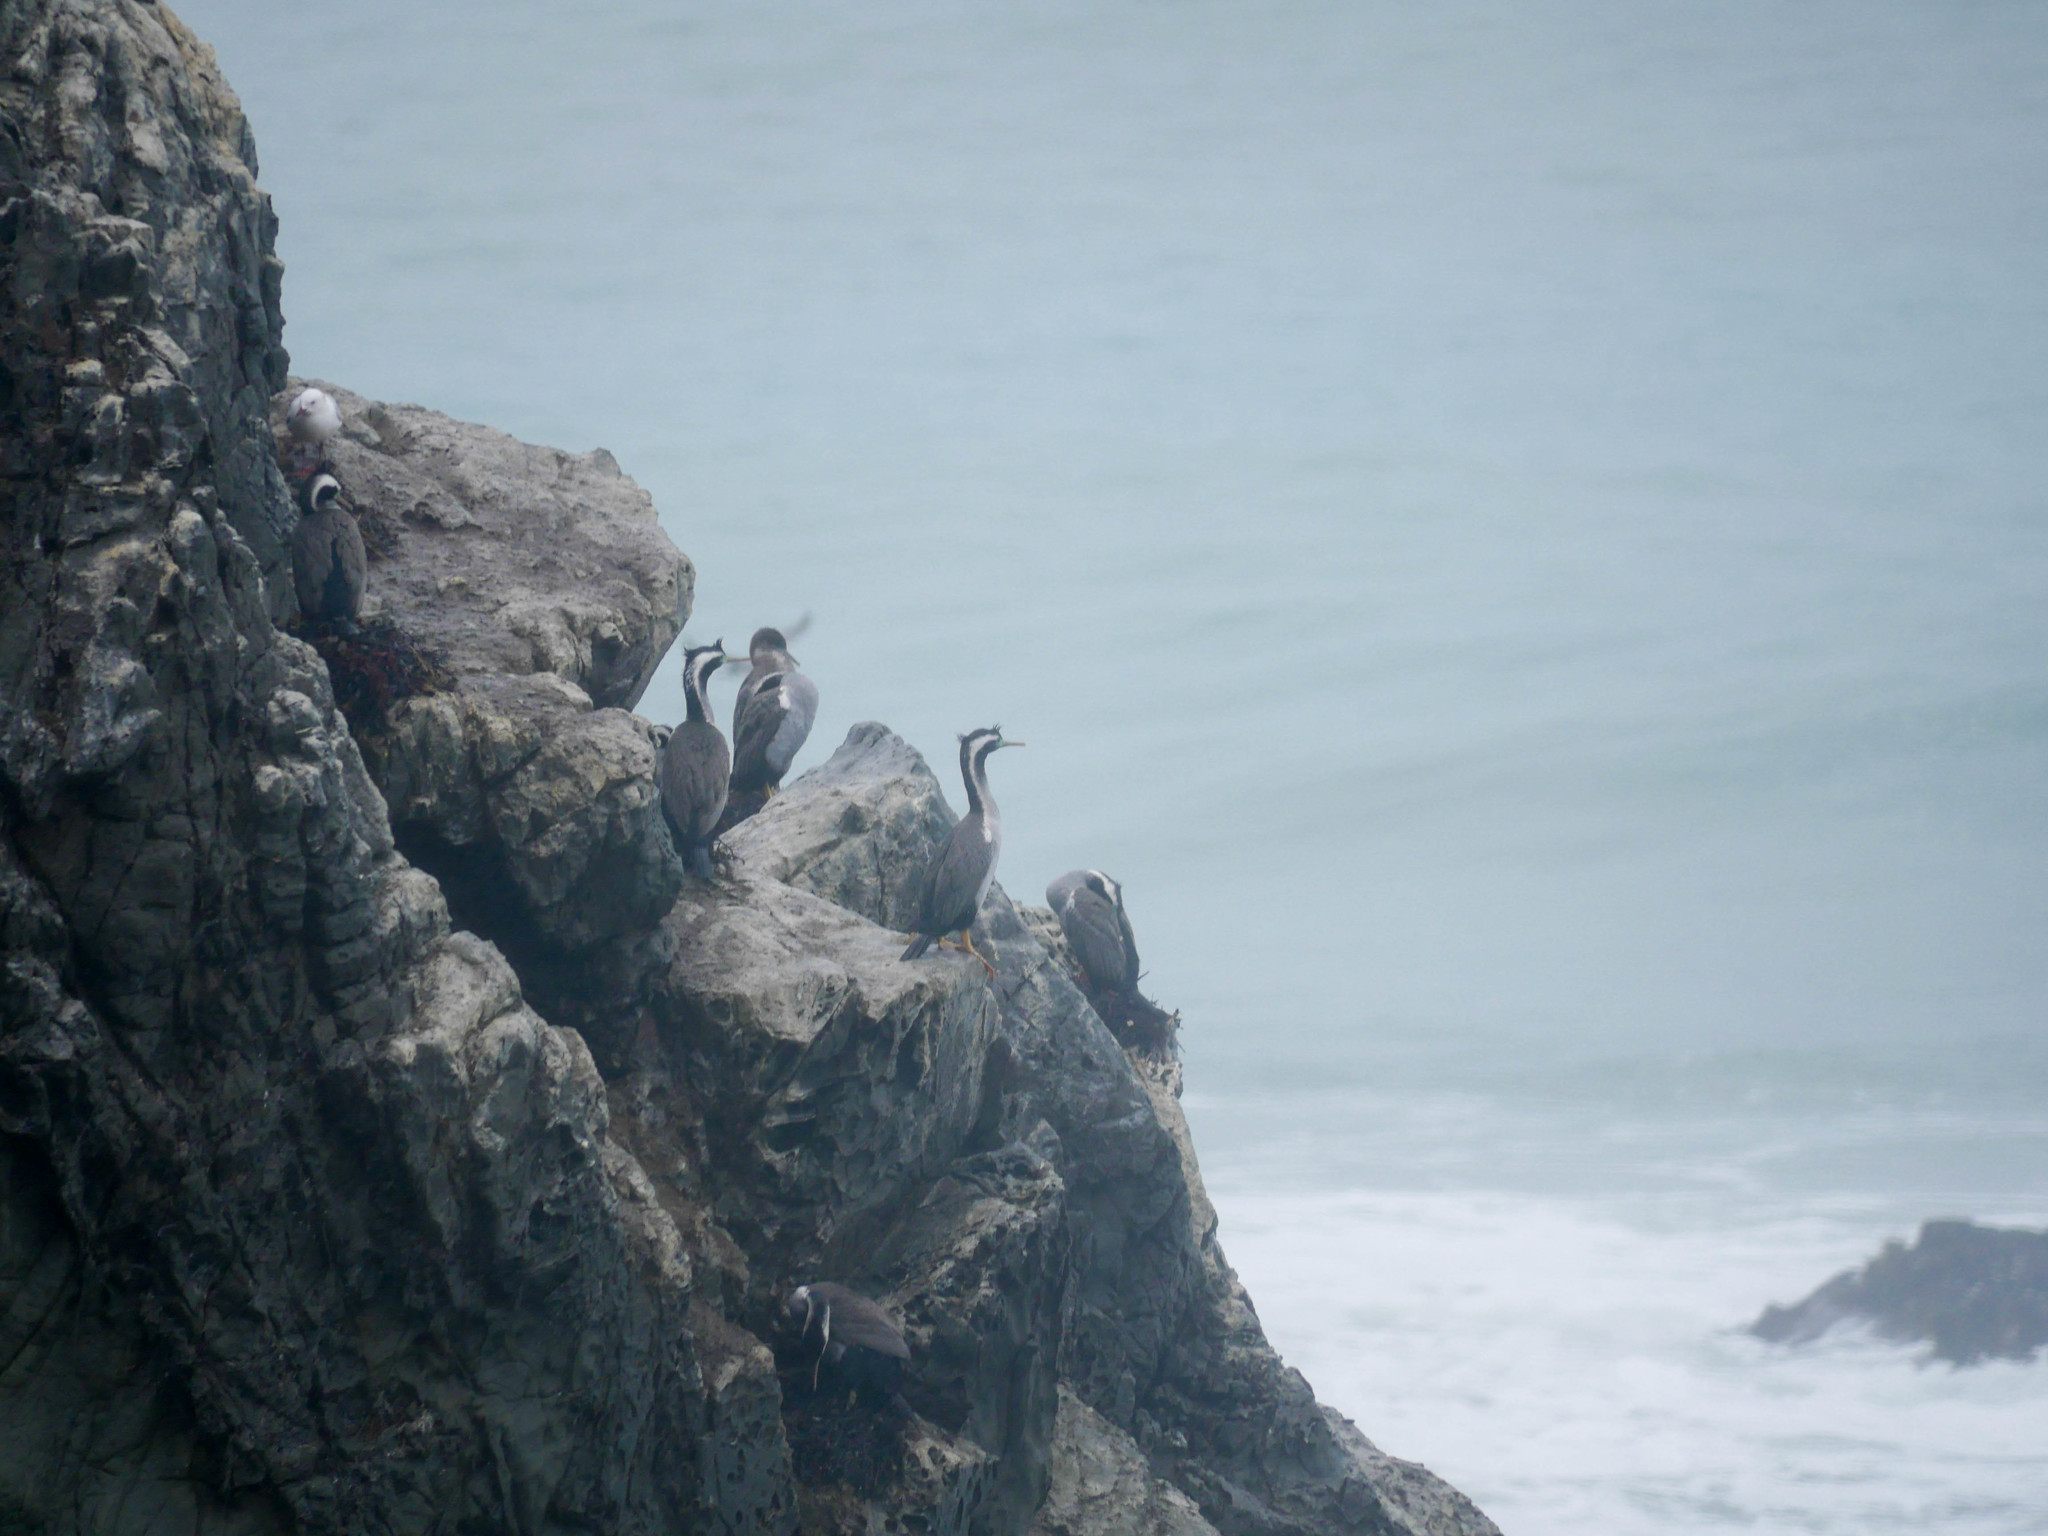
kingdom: Animalia
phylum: Chordata
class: Aves
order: Suliformes
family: Phalacrocoracidae
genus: Phalacrocorax
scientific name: Phalacrocorax punctatus
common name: Spotted shag
